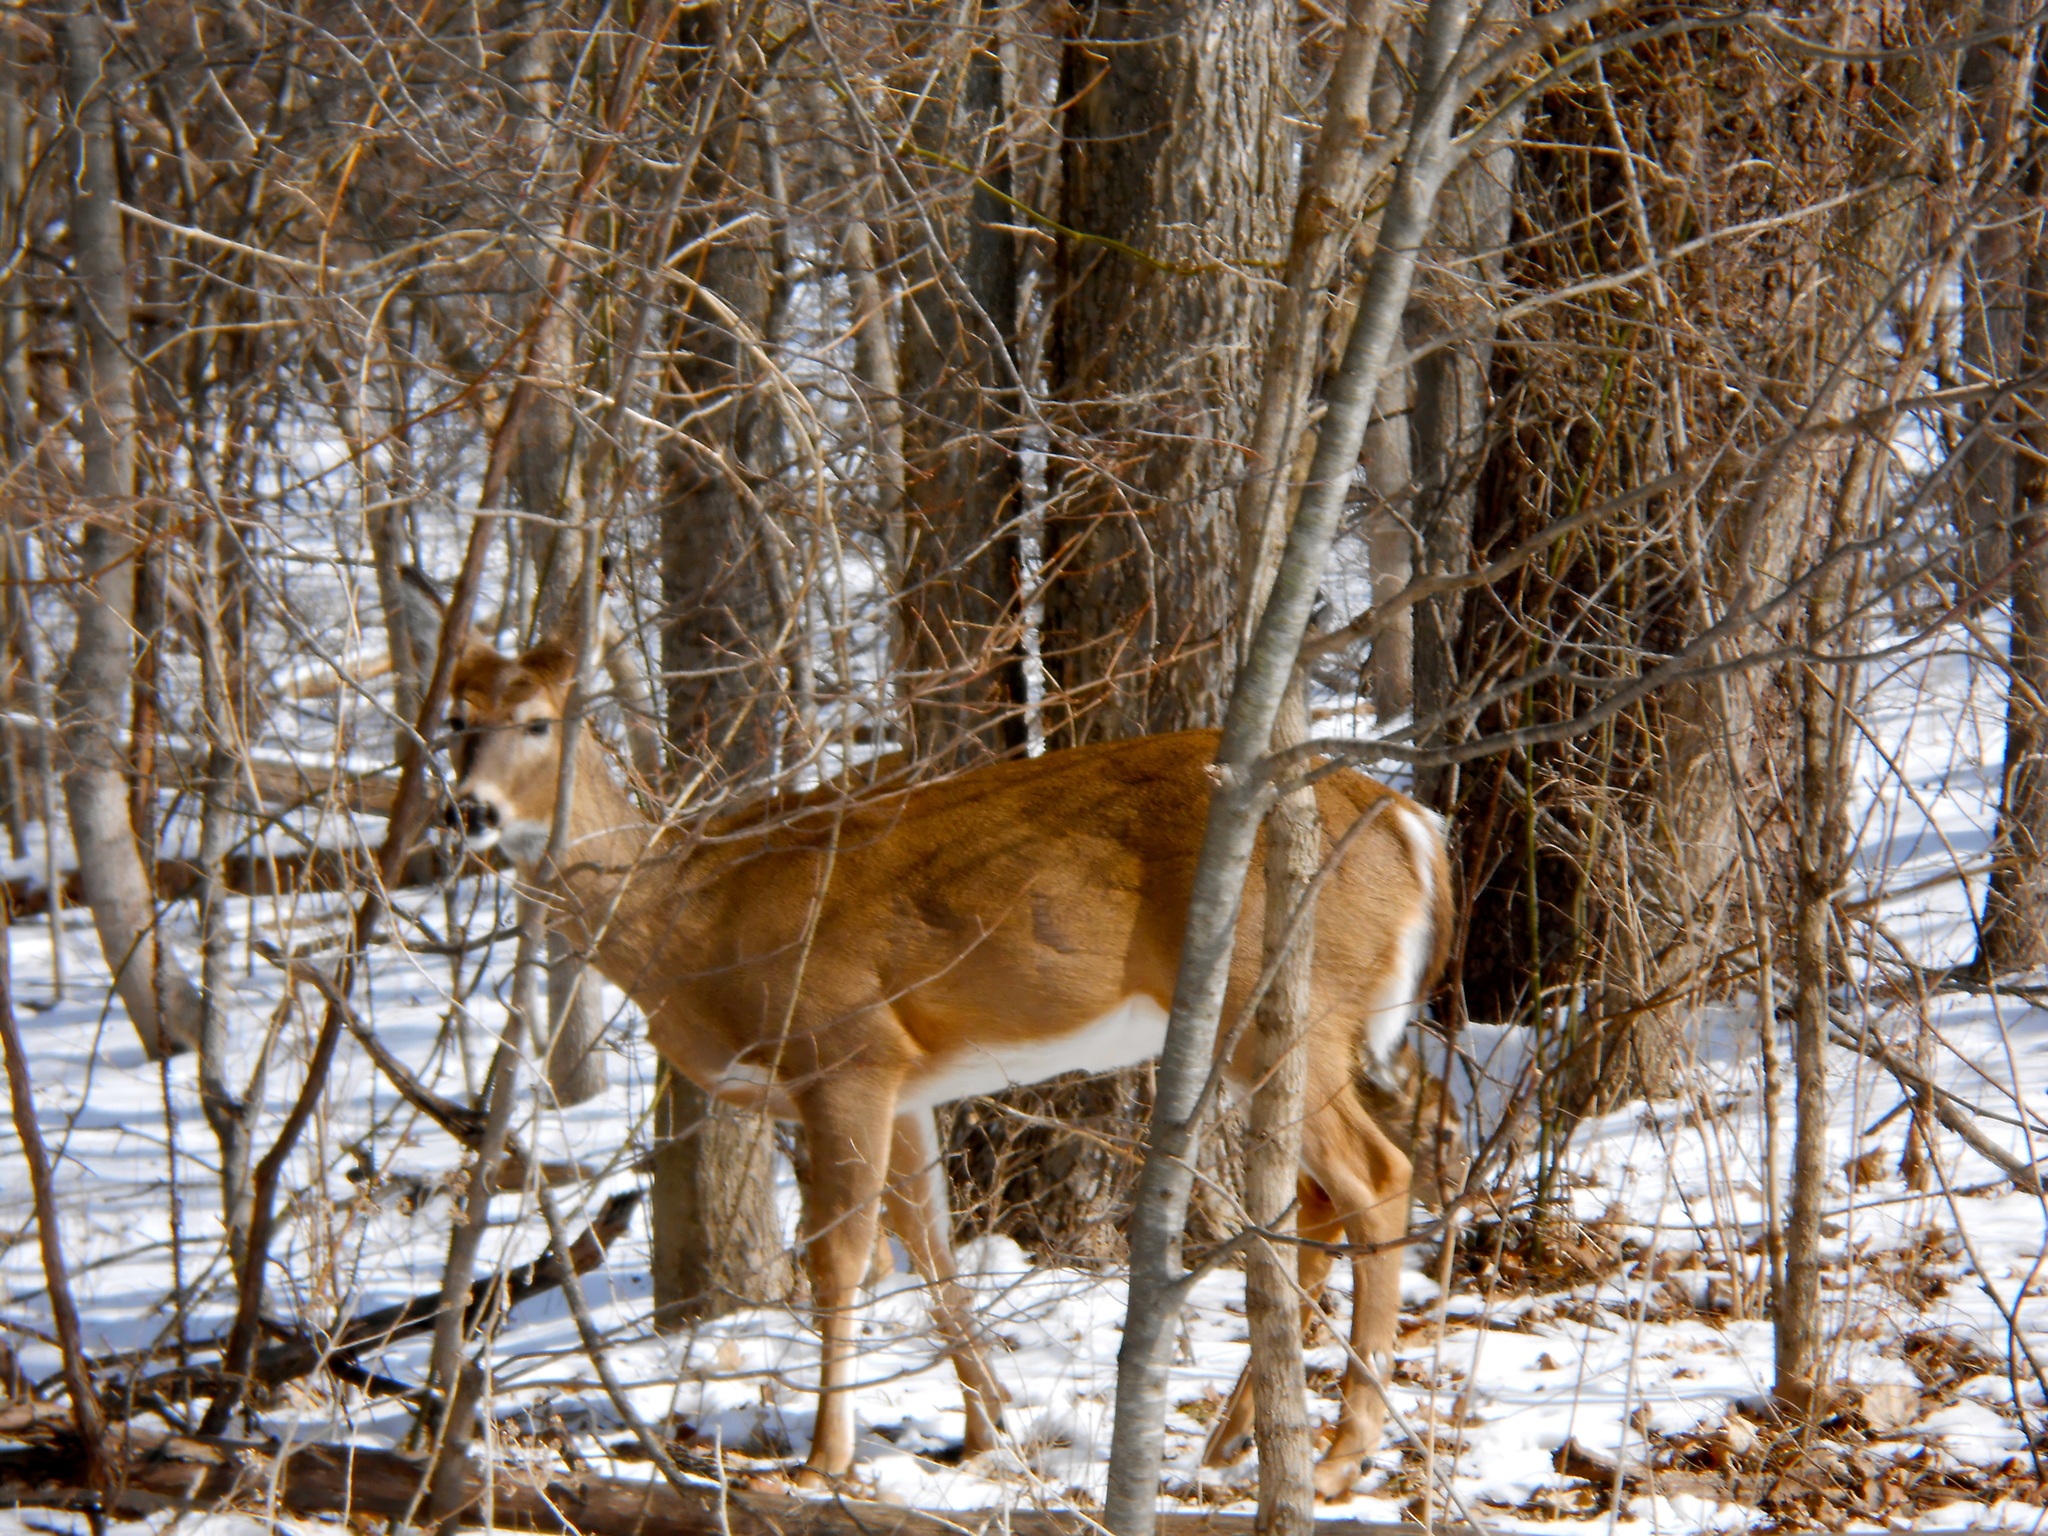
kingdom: Animalia
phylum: Chordata
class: Mammalia
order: Artiodactyla
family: Cervidae
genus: Odocoileus
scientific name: Odocoileus virginianus
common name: White-tailed deer
